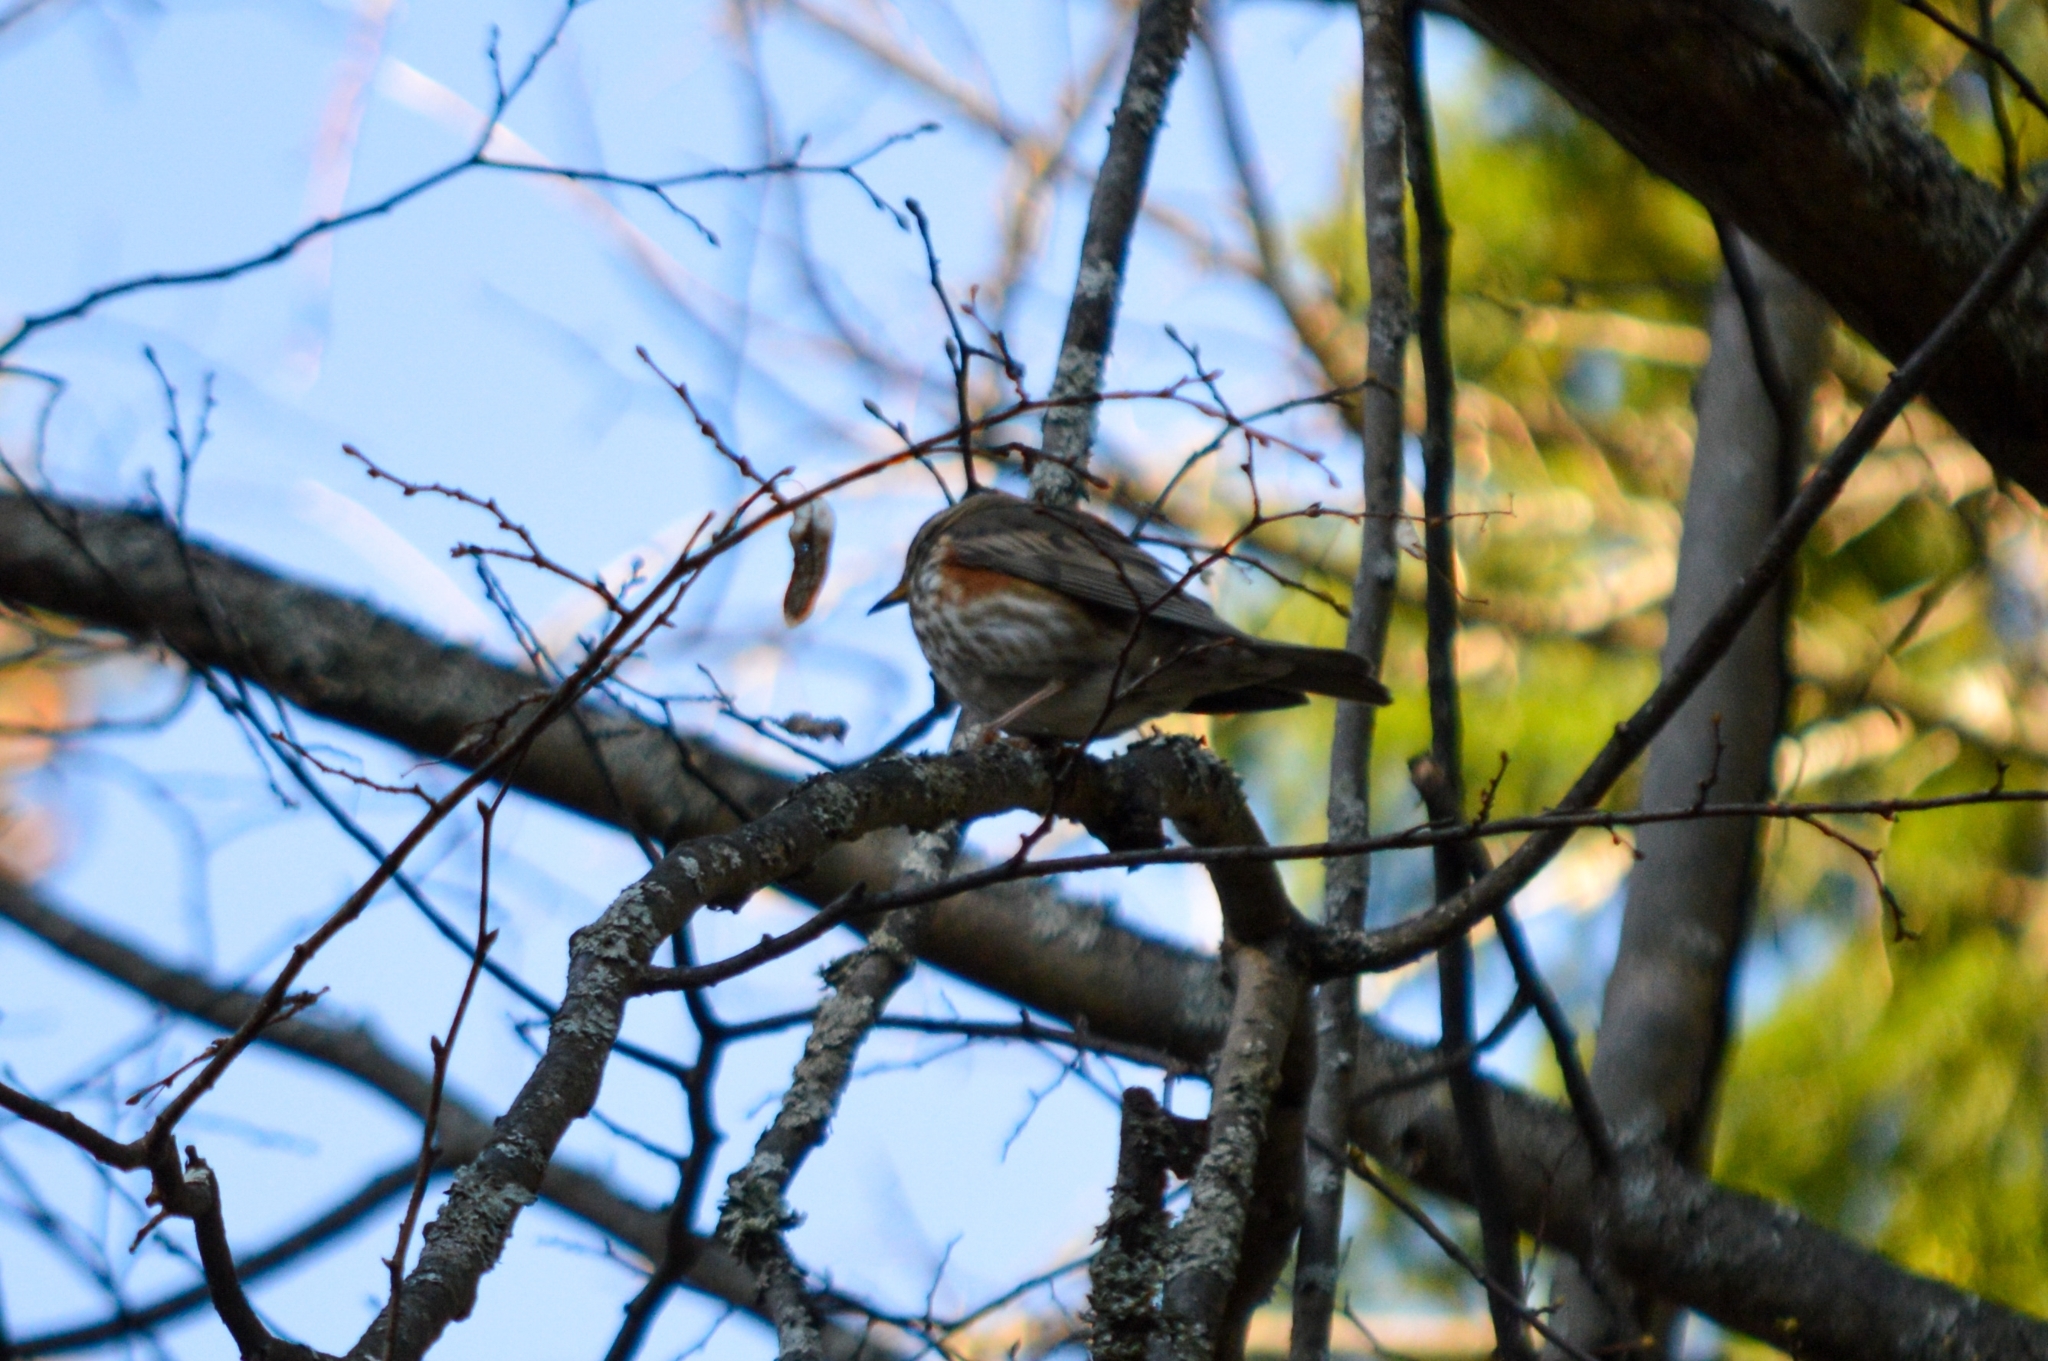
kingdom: Animalia
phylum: Chordata
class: Aves
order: Passeriformes
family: Turdidae
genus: Turdus
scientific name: Turdus iliacus
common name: Redwing
